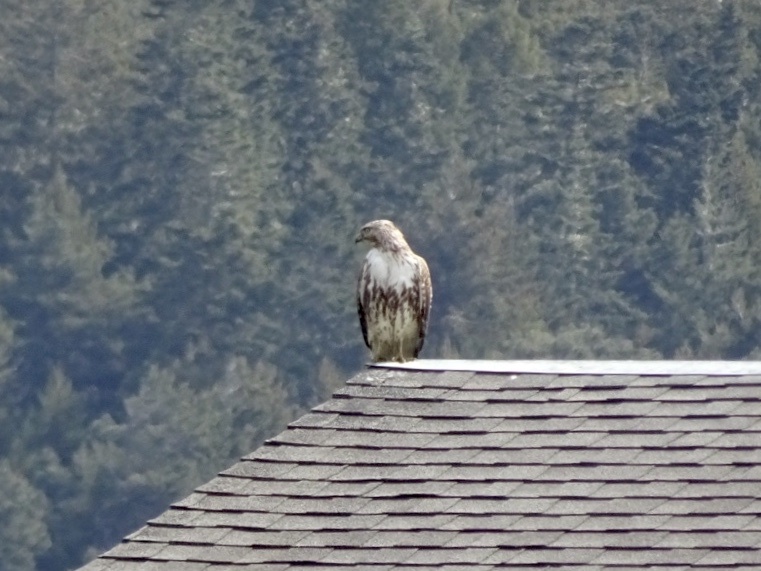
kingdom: Animalia
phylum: Chordata
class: Aves
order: Accipitriformes
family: Accipitridae
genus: Buteo
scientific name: Buteo jamaicensis
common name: Red-tailed hawk
